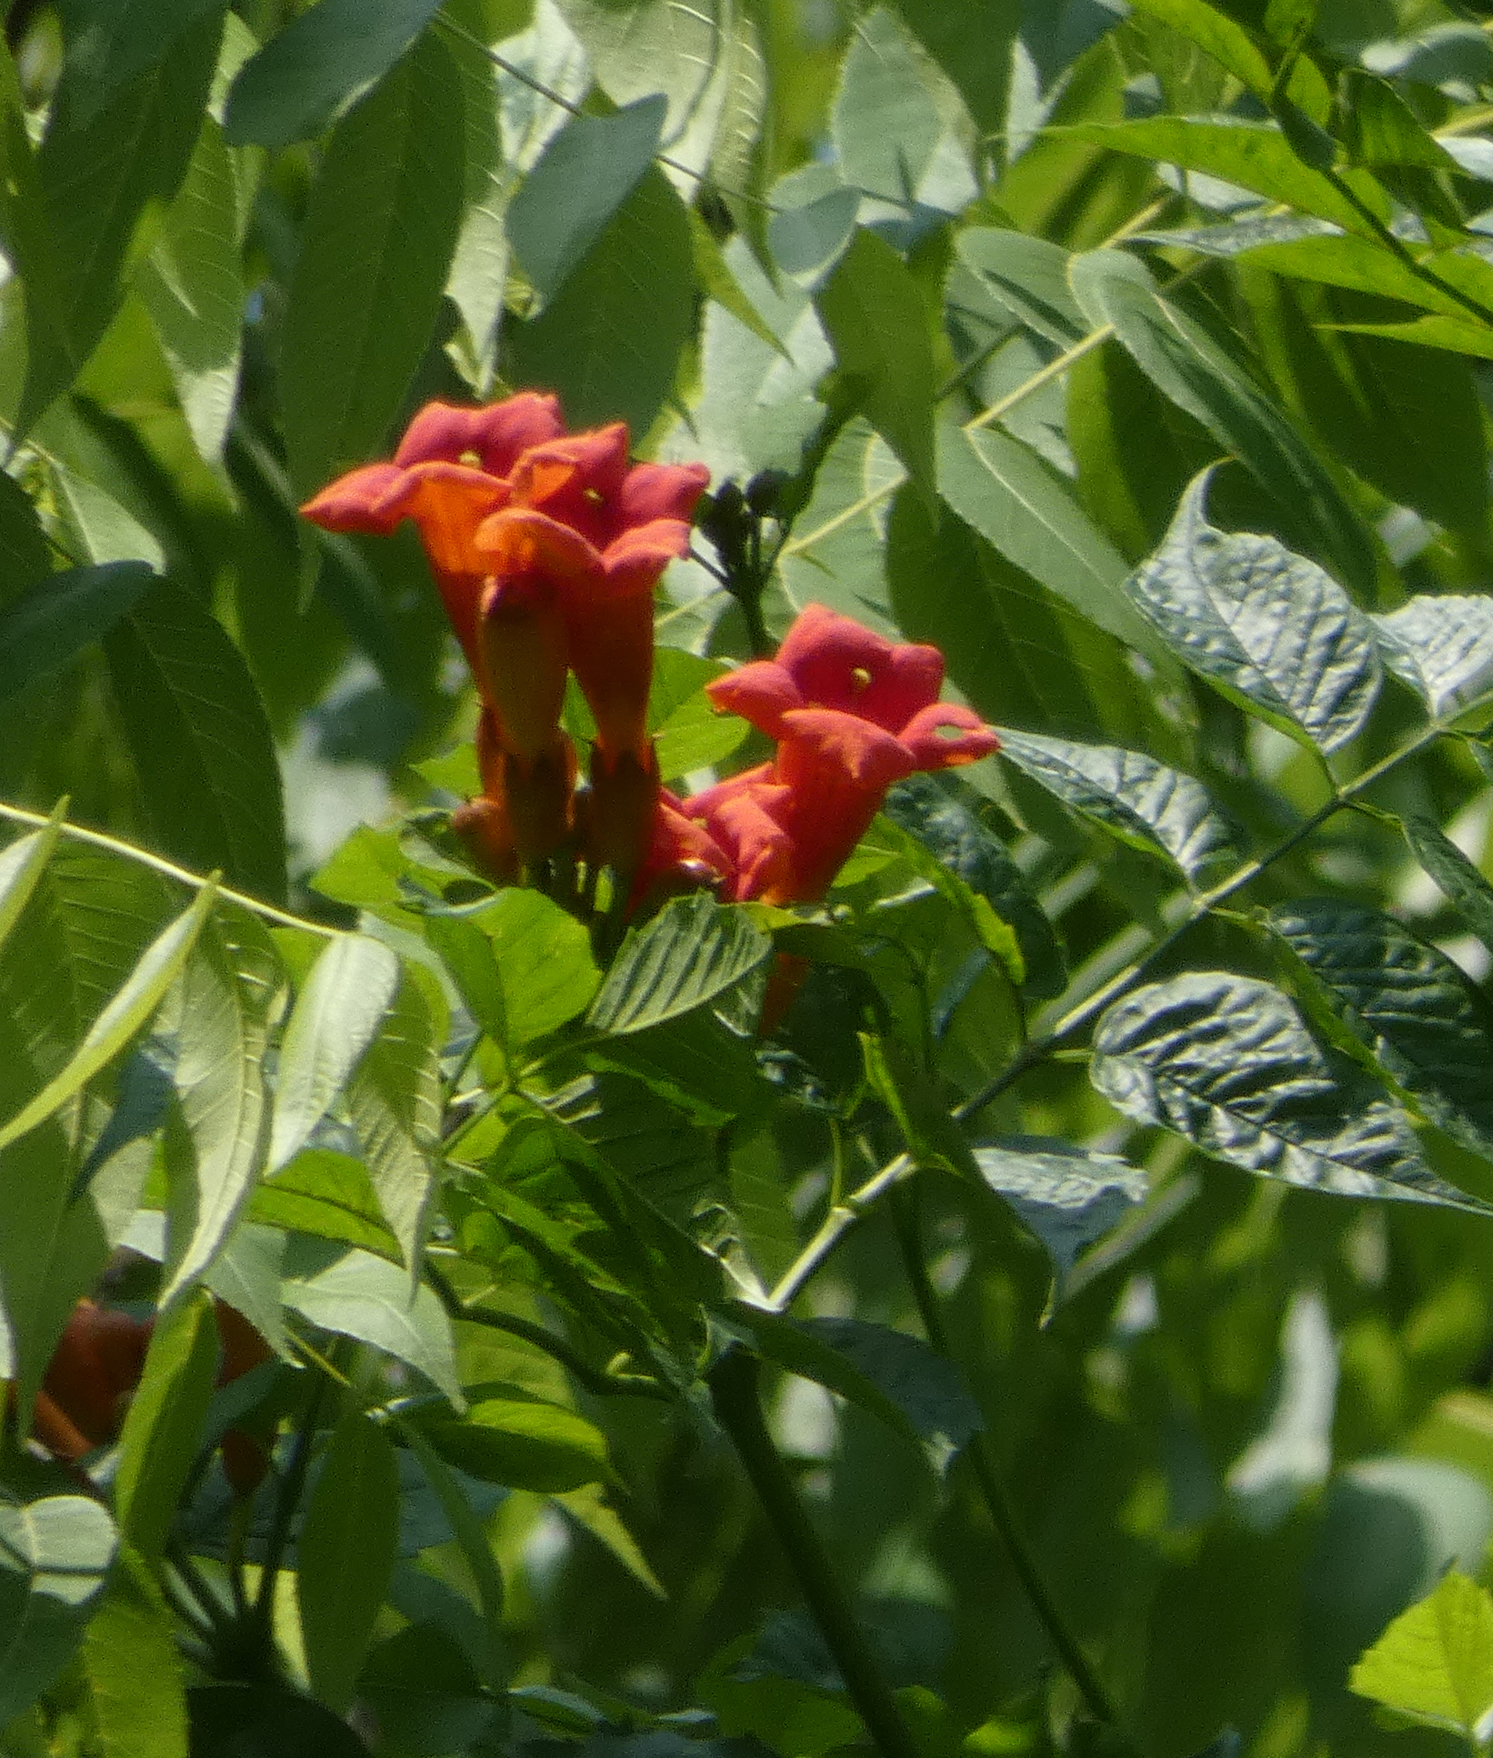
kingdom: Plantae
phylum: Tracheophyta
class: Magnoliopsida
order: Lamiales
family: Bignoniaceae
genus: Campsis
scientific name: Campsis radicans
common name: Trumpet-creeper
